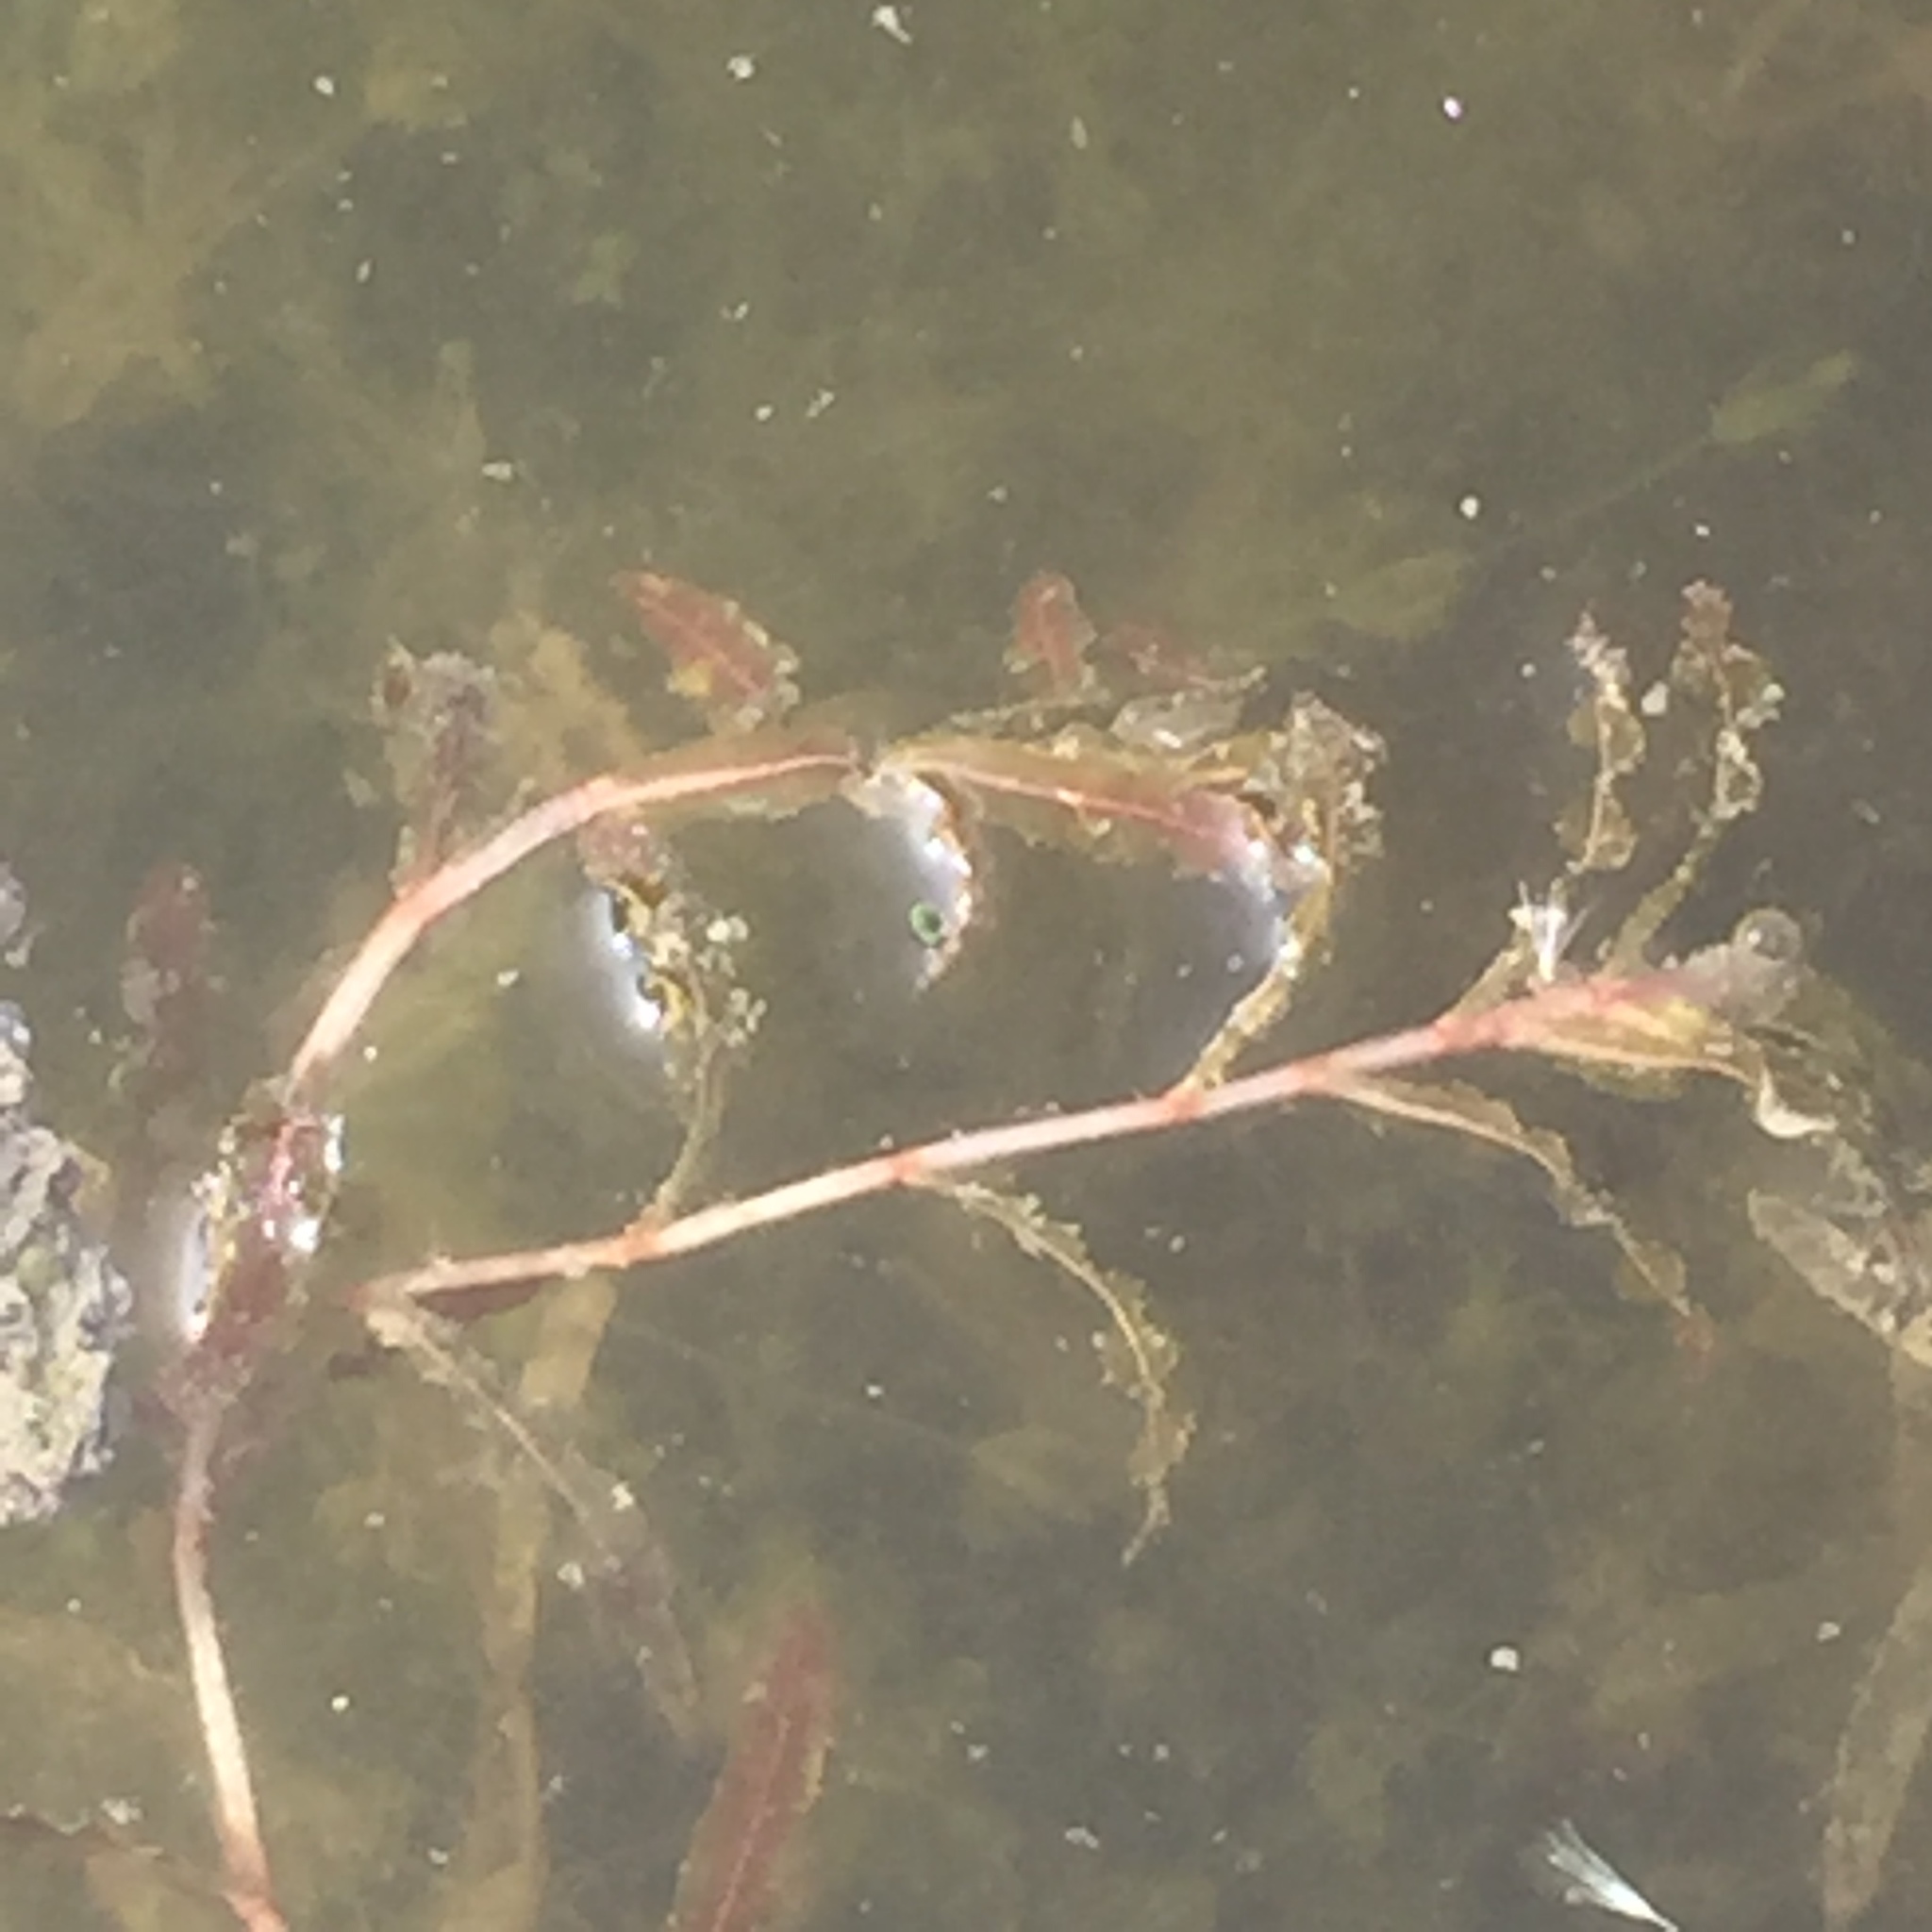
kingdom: Plantae
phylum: Tracheophyta
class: Liliopsida
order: Alismatales
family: Potamogetonaceae
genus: Potamogeton
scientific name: Potamogeton crispus
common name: Curled pondweed
